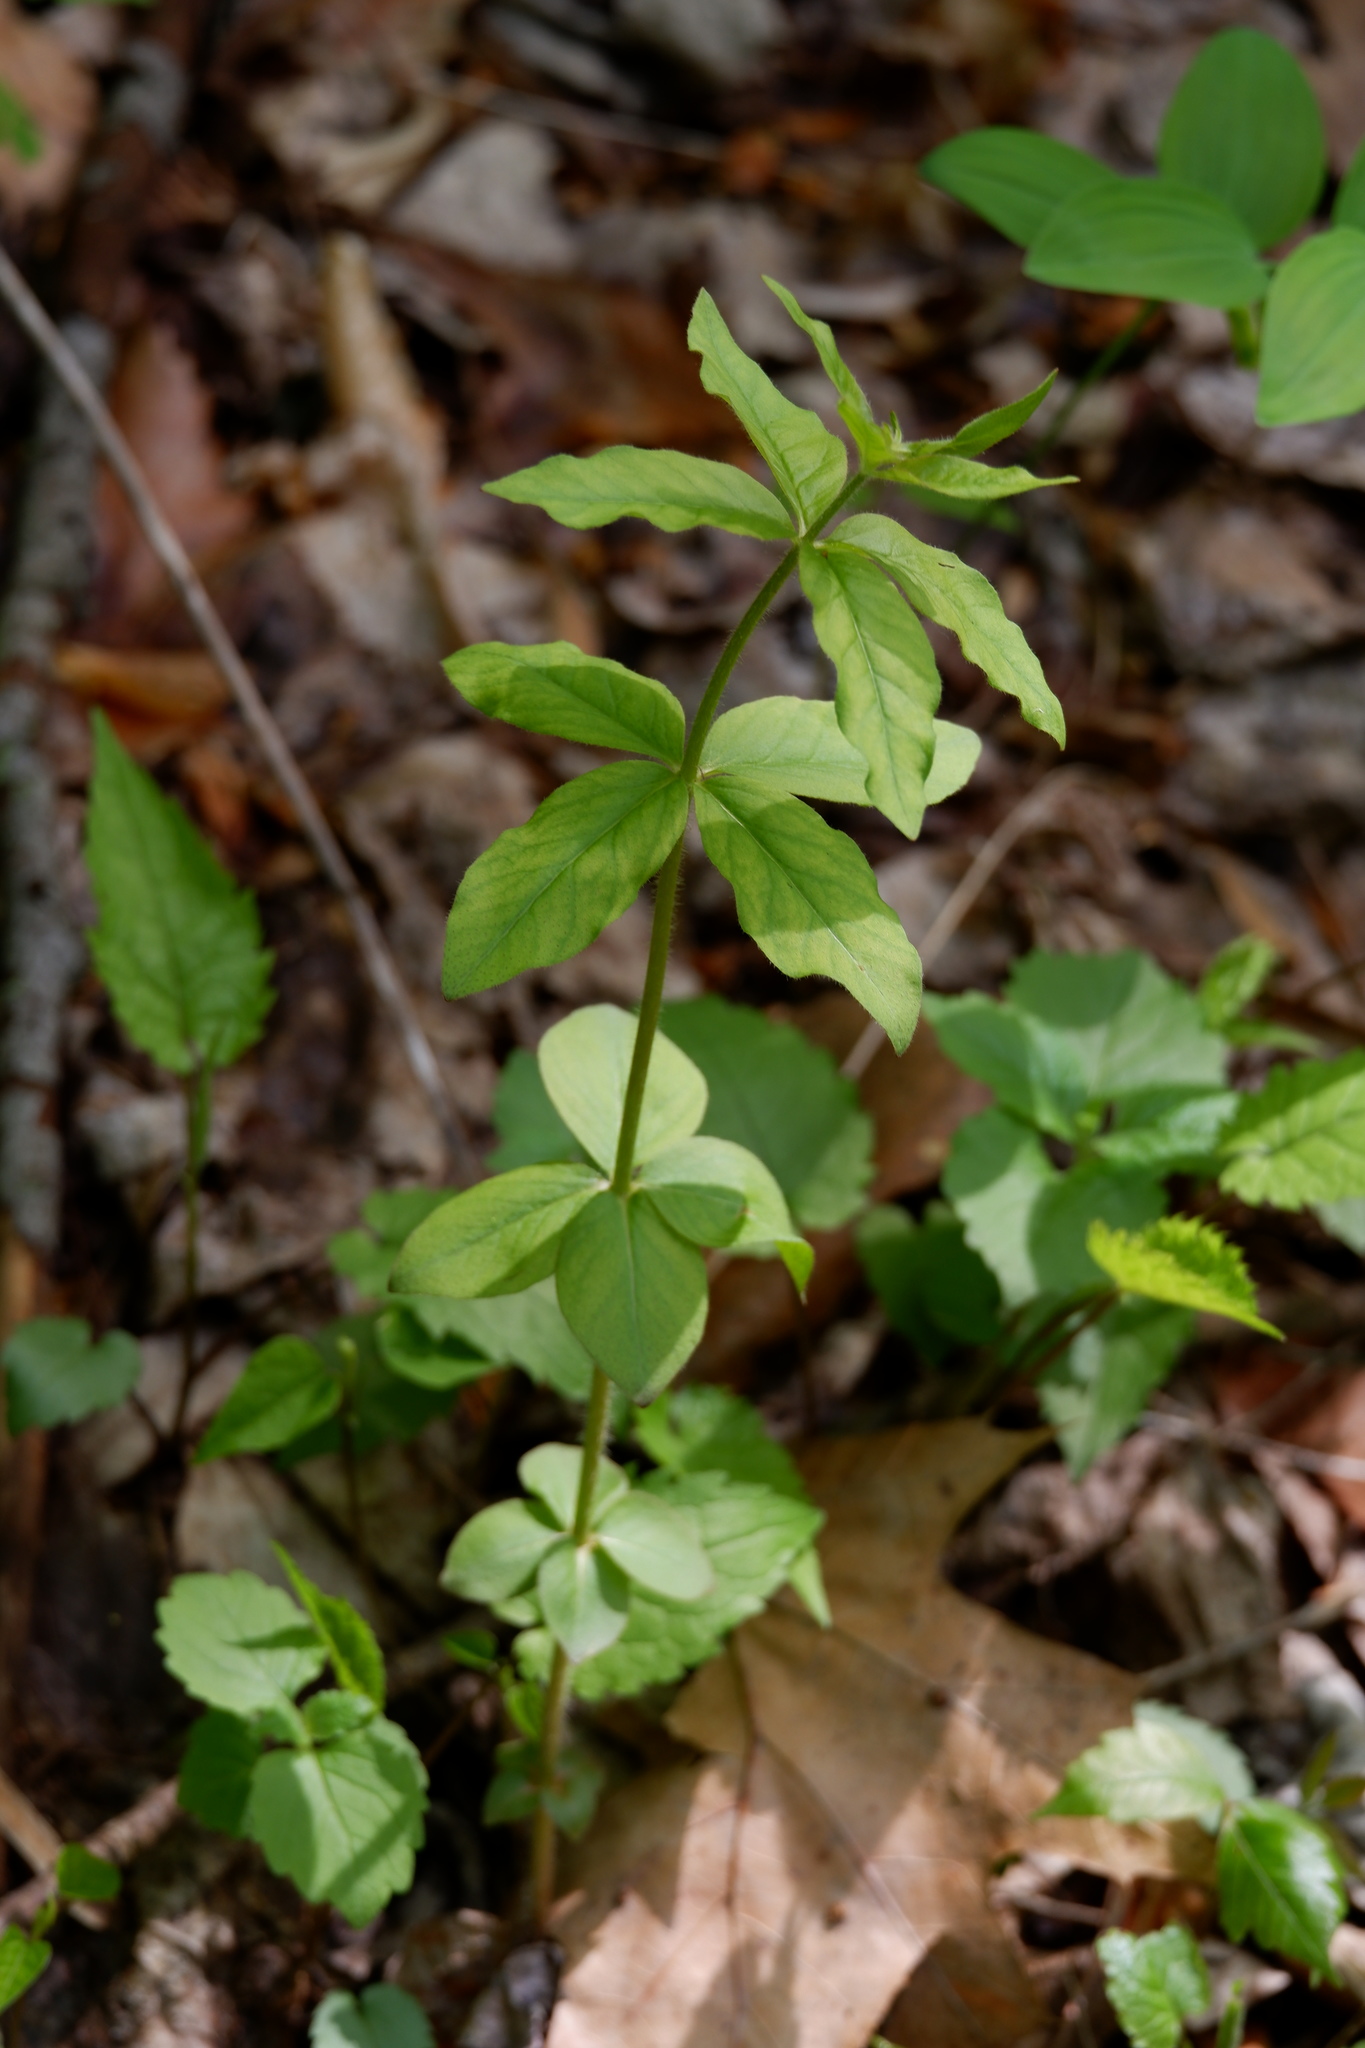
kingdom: Plantae
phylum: Tracheophyta
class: Magnoliopsida
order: Ericales
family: Primulaceae
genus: Lysimachia
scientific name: Lysimachia quadrifolia
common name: Whorled loosestrife
